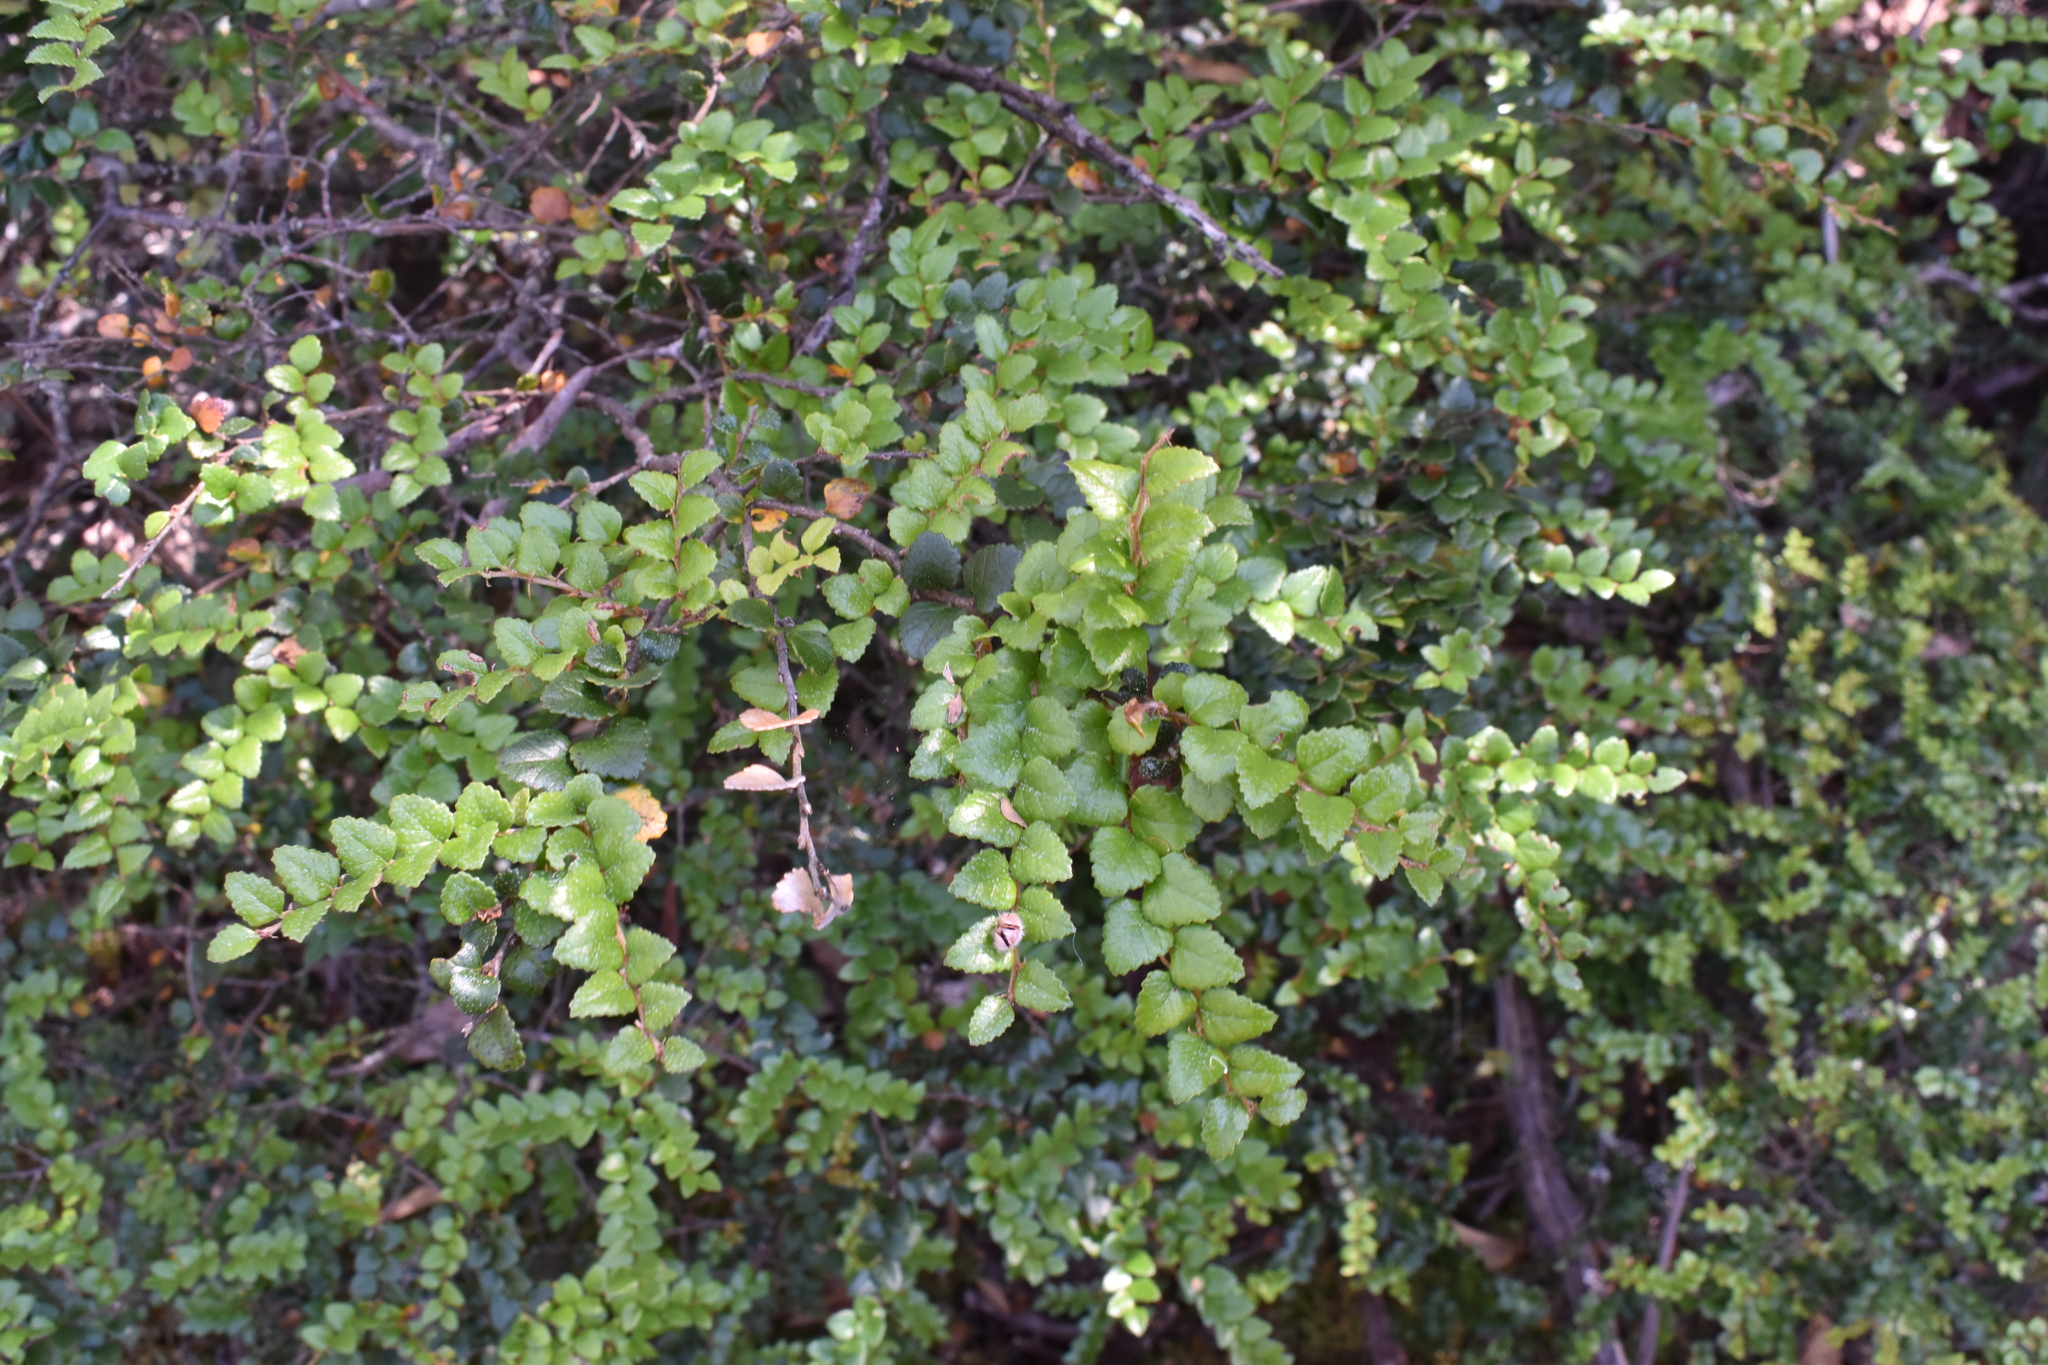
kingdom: Plantae
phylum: Tracheophyta
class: Magnoliopsida
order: Fagales
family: Nothofagaceae
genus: Nothofagus
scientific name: Nothofagus cunninghamii
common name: Myrtle beech
